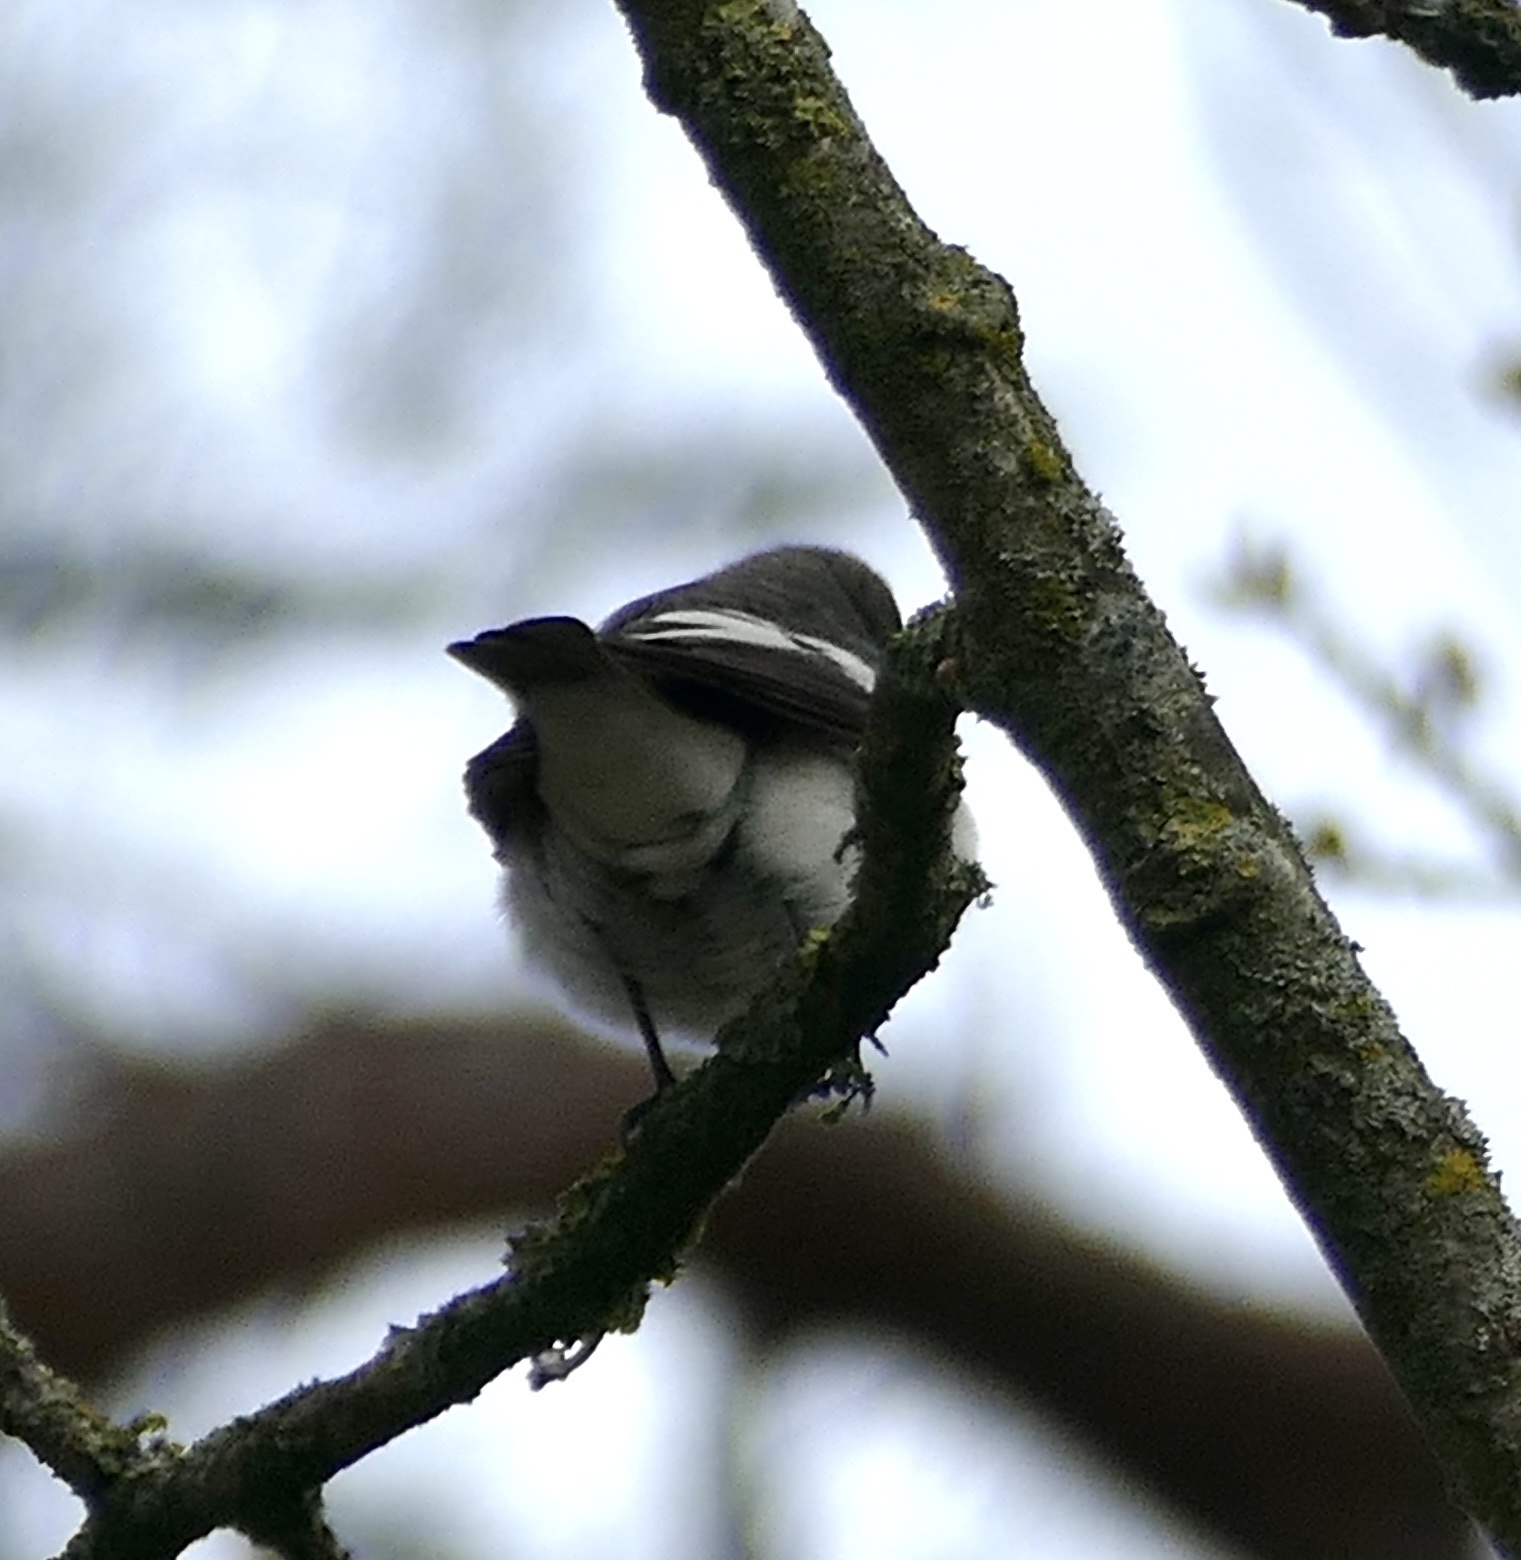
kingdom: Animalia
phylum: Chordata
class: Aves
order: Passeriformes
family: Muscicapidae
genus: Ficedula
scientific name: Ficedula hypoleuca
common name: European pied flycatcher
